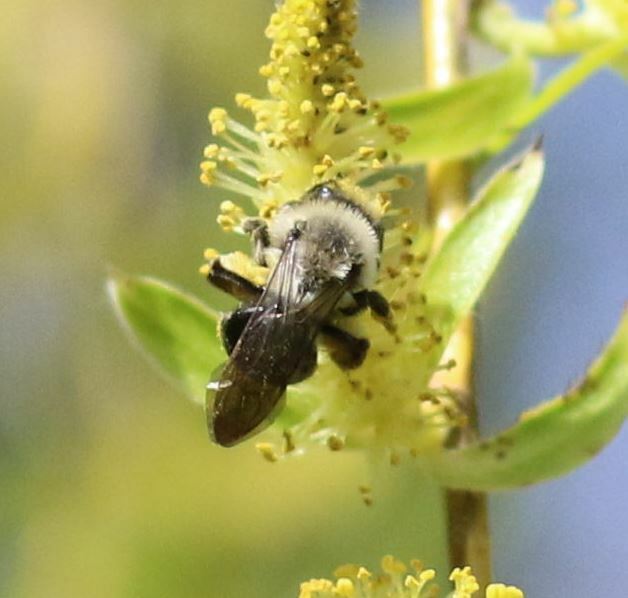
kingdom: Animalia
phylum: Arthropoda
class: Insecta
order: Hymenoptera
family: Andrenidae
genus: Andrena
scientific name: Andrena vaga
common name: Grey-backed mining bee
